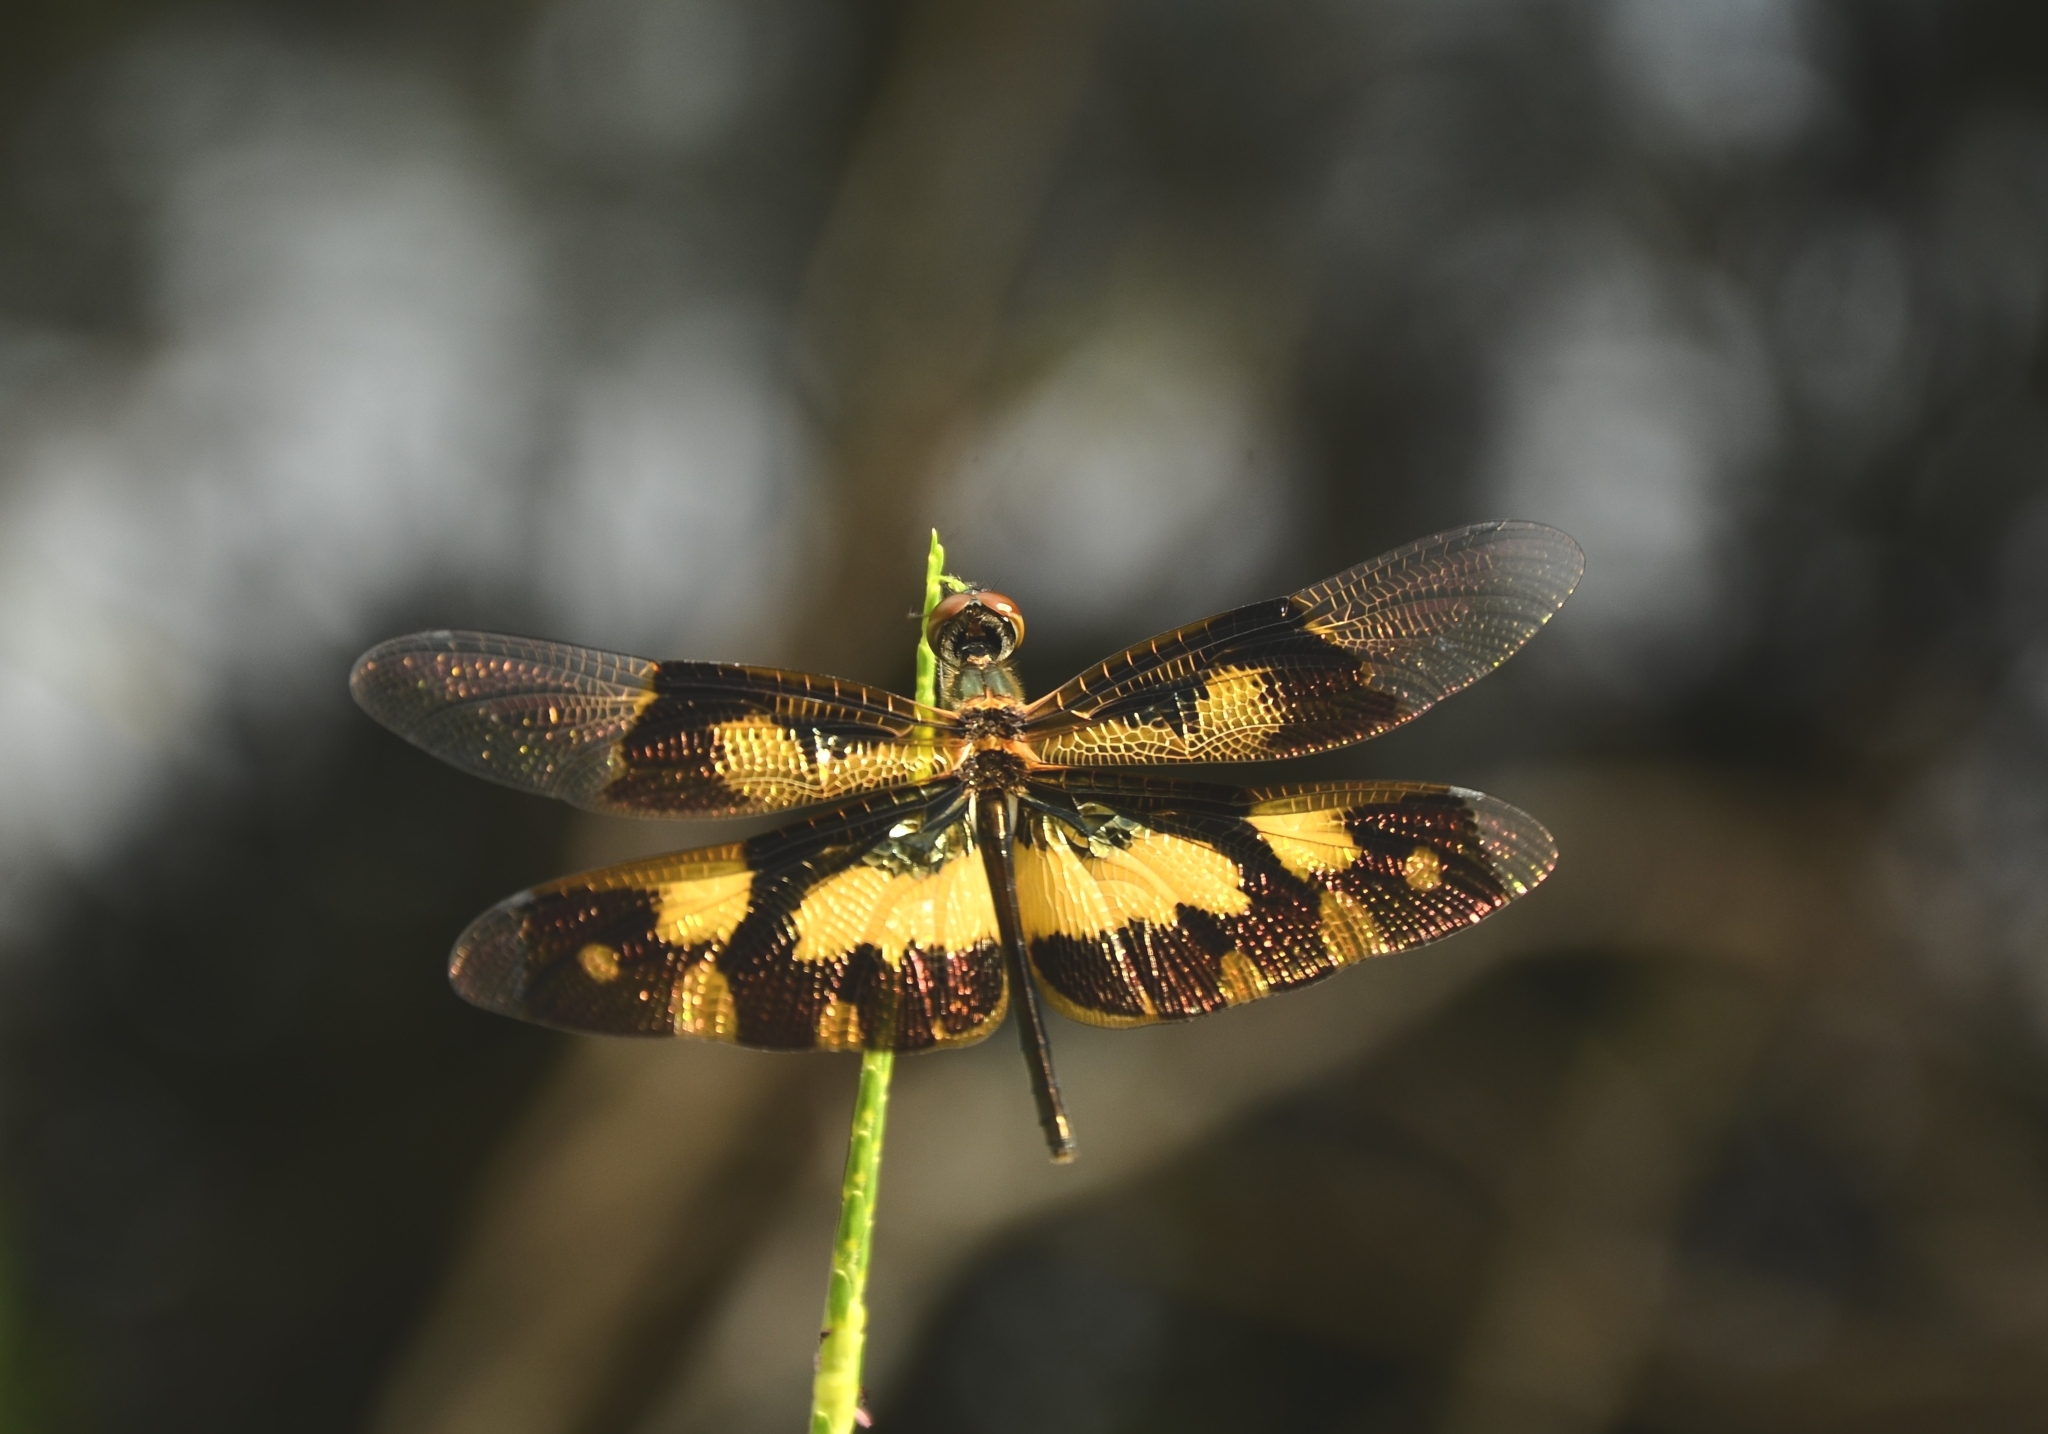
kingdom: Animalia
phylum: Arthropoda
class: Insecta
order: Odonata
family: Libellulidae
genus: Rhyothemis
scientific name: Rhyothemis variegata
